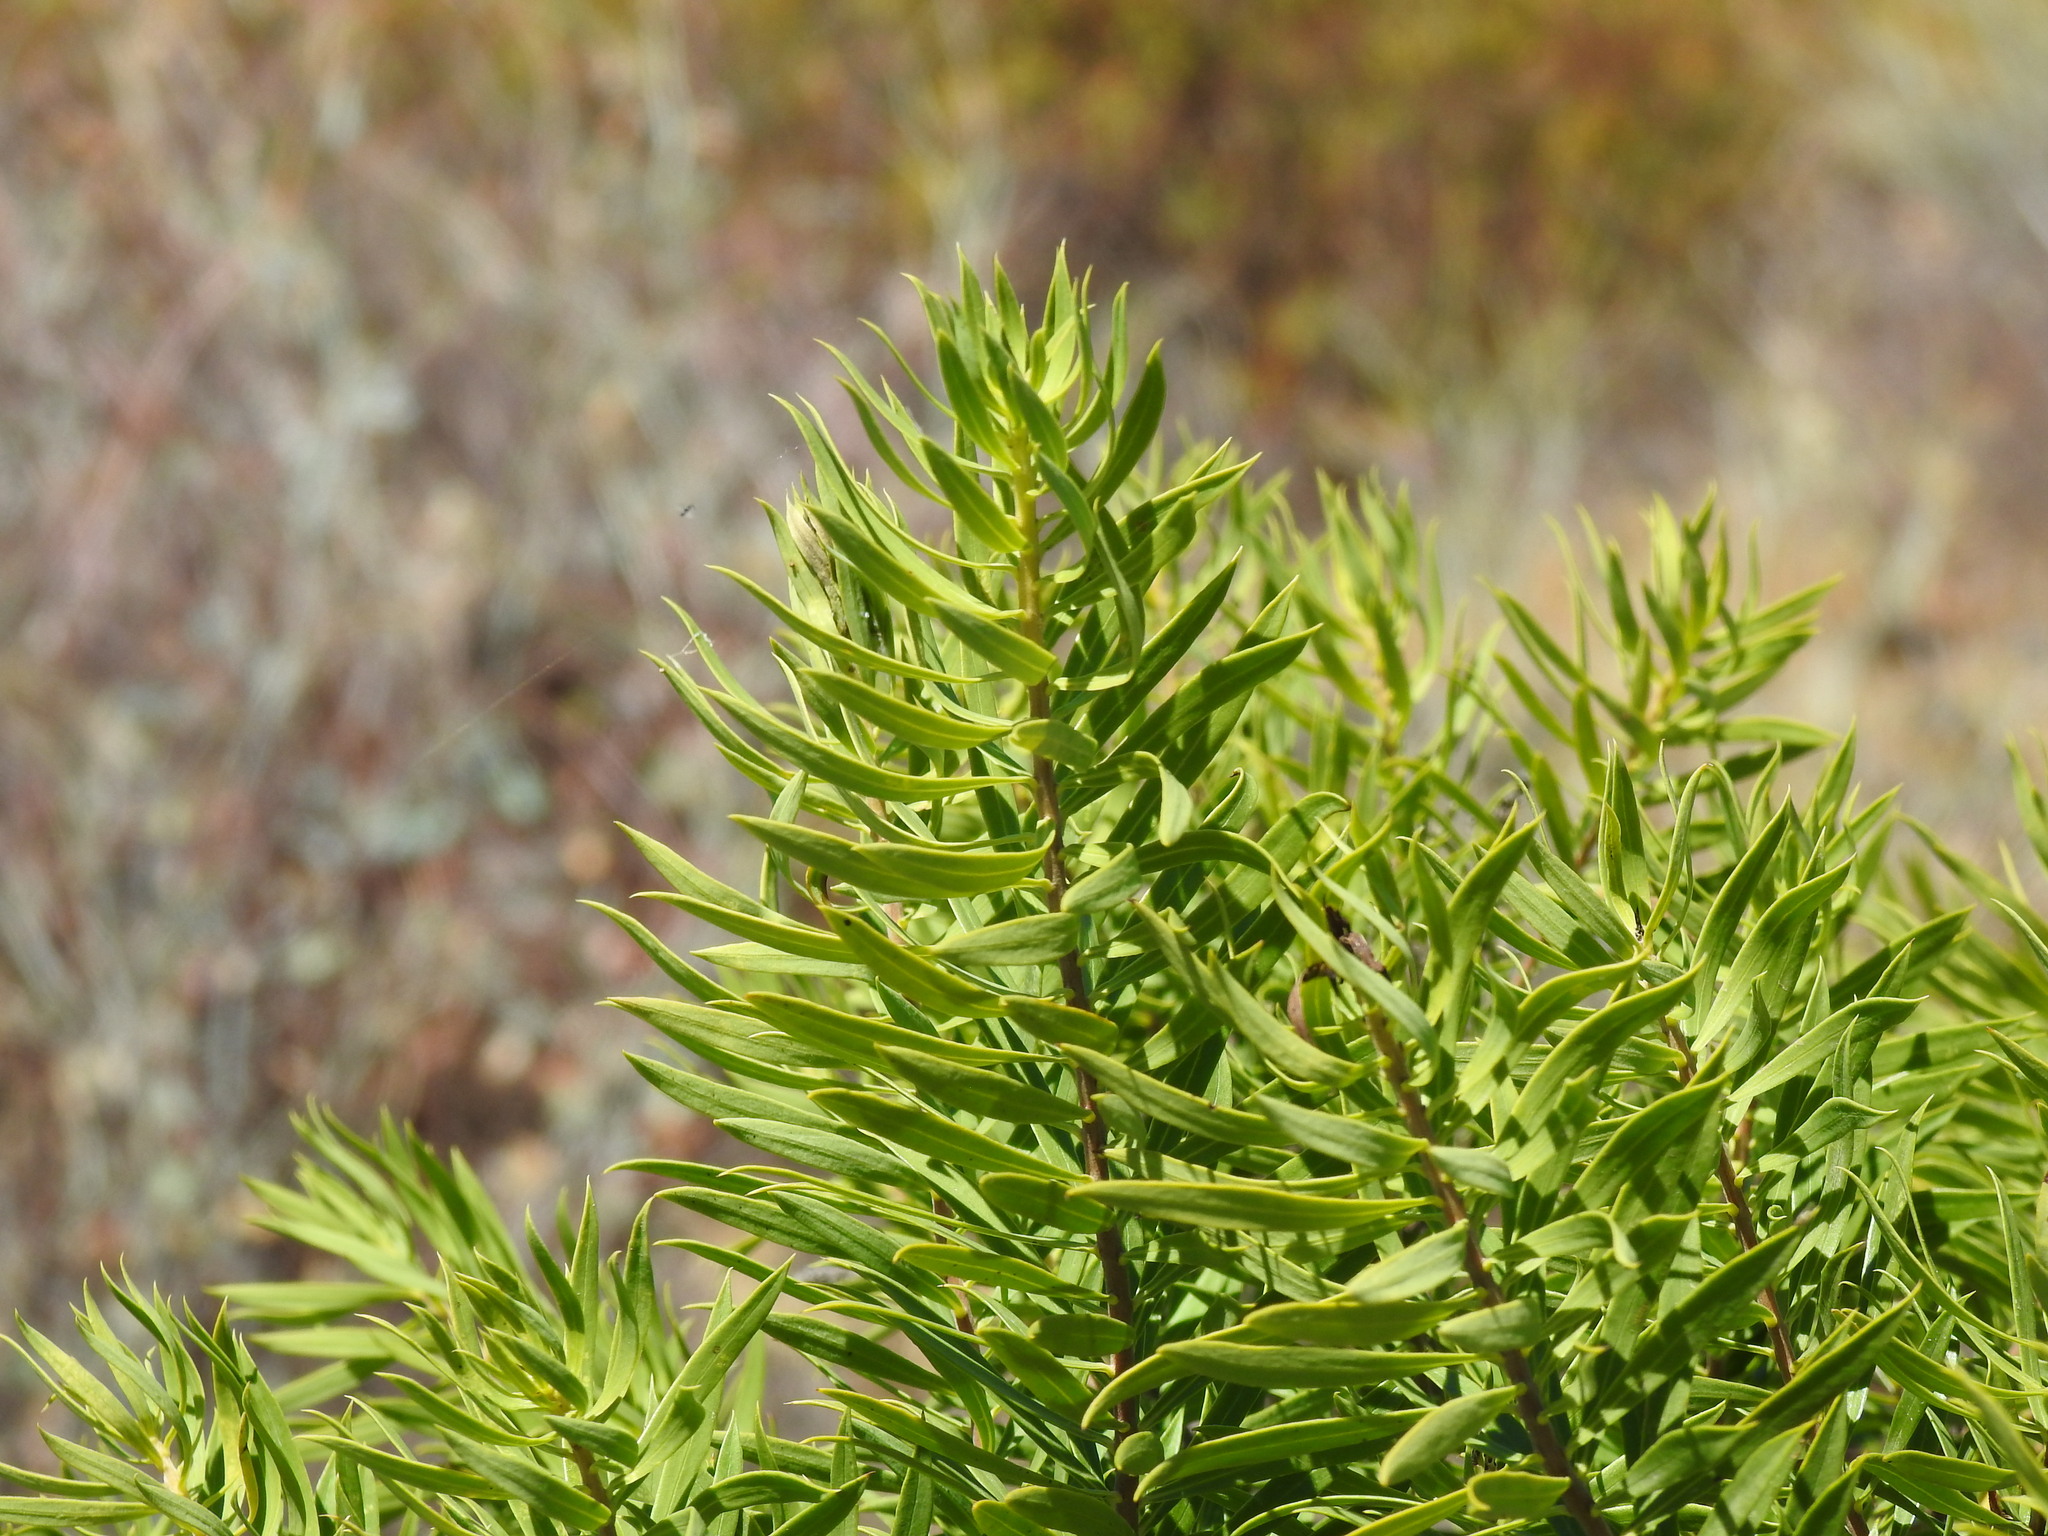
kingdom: Plantae
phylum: Tracheophyta
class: Magnoliopsida
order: Malvales
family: Thymelaeaceae
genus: Daphne
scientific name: Daphne gnidium
